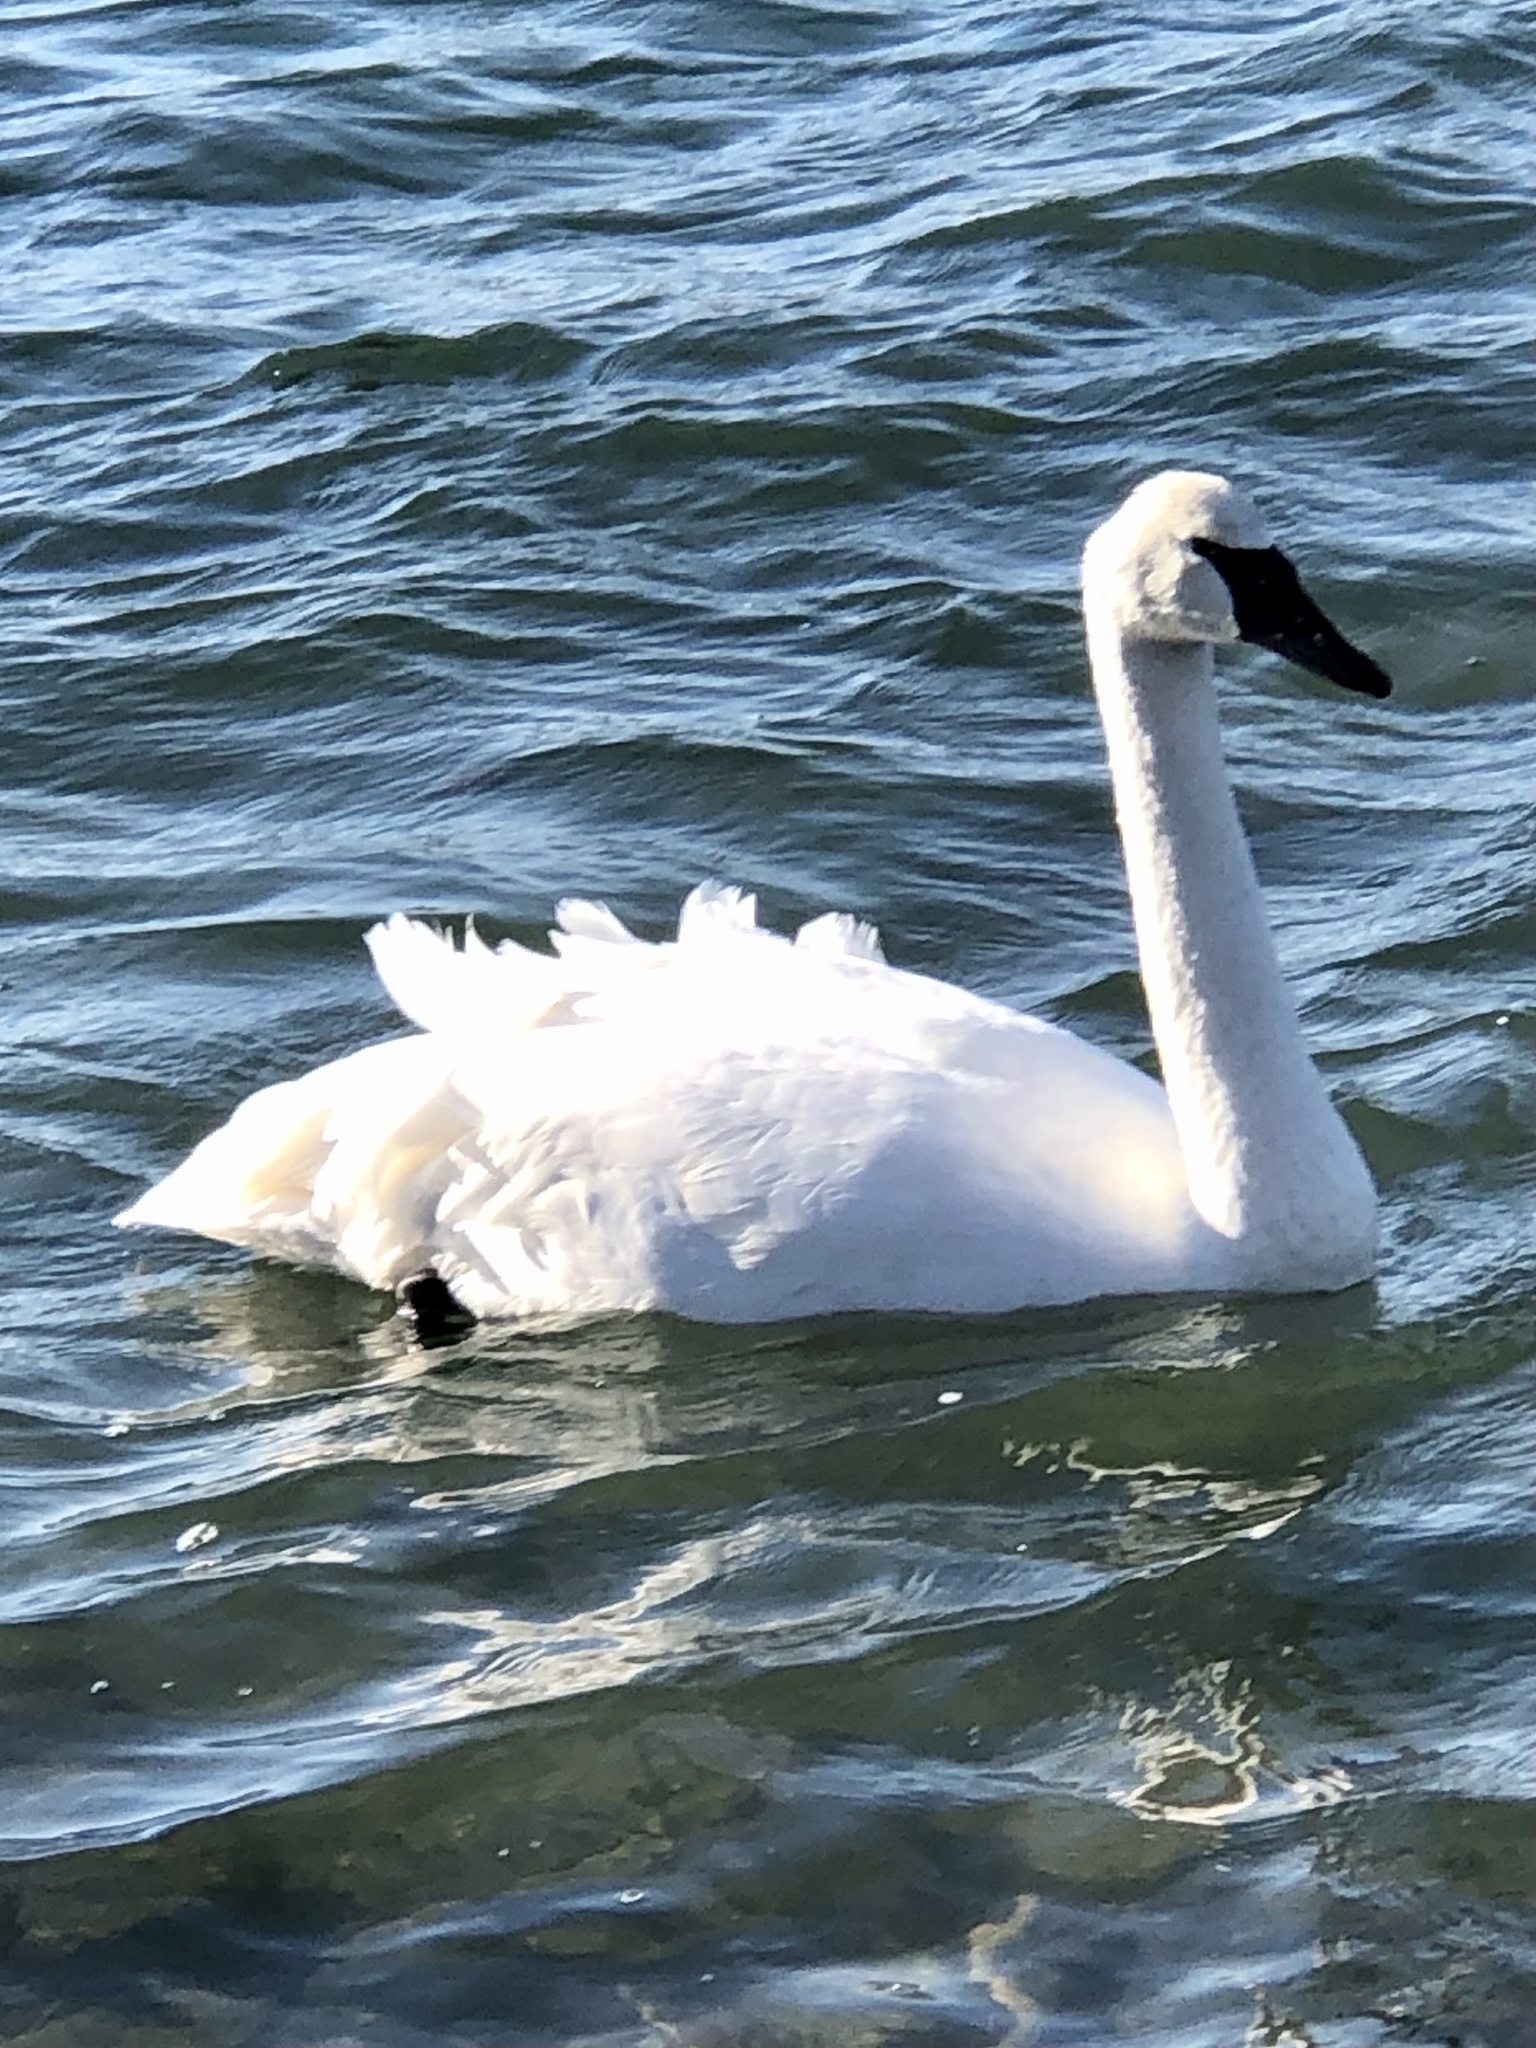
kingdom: Animalia
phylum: Chordata
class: Aves
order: Anseriformes
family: Anatidae
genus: Cygnus
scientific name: Cygnus buccinator
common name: Trumpeter swan
